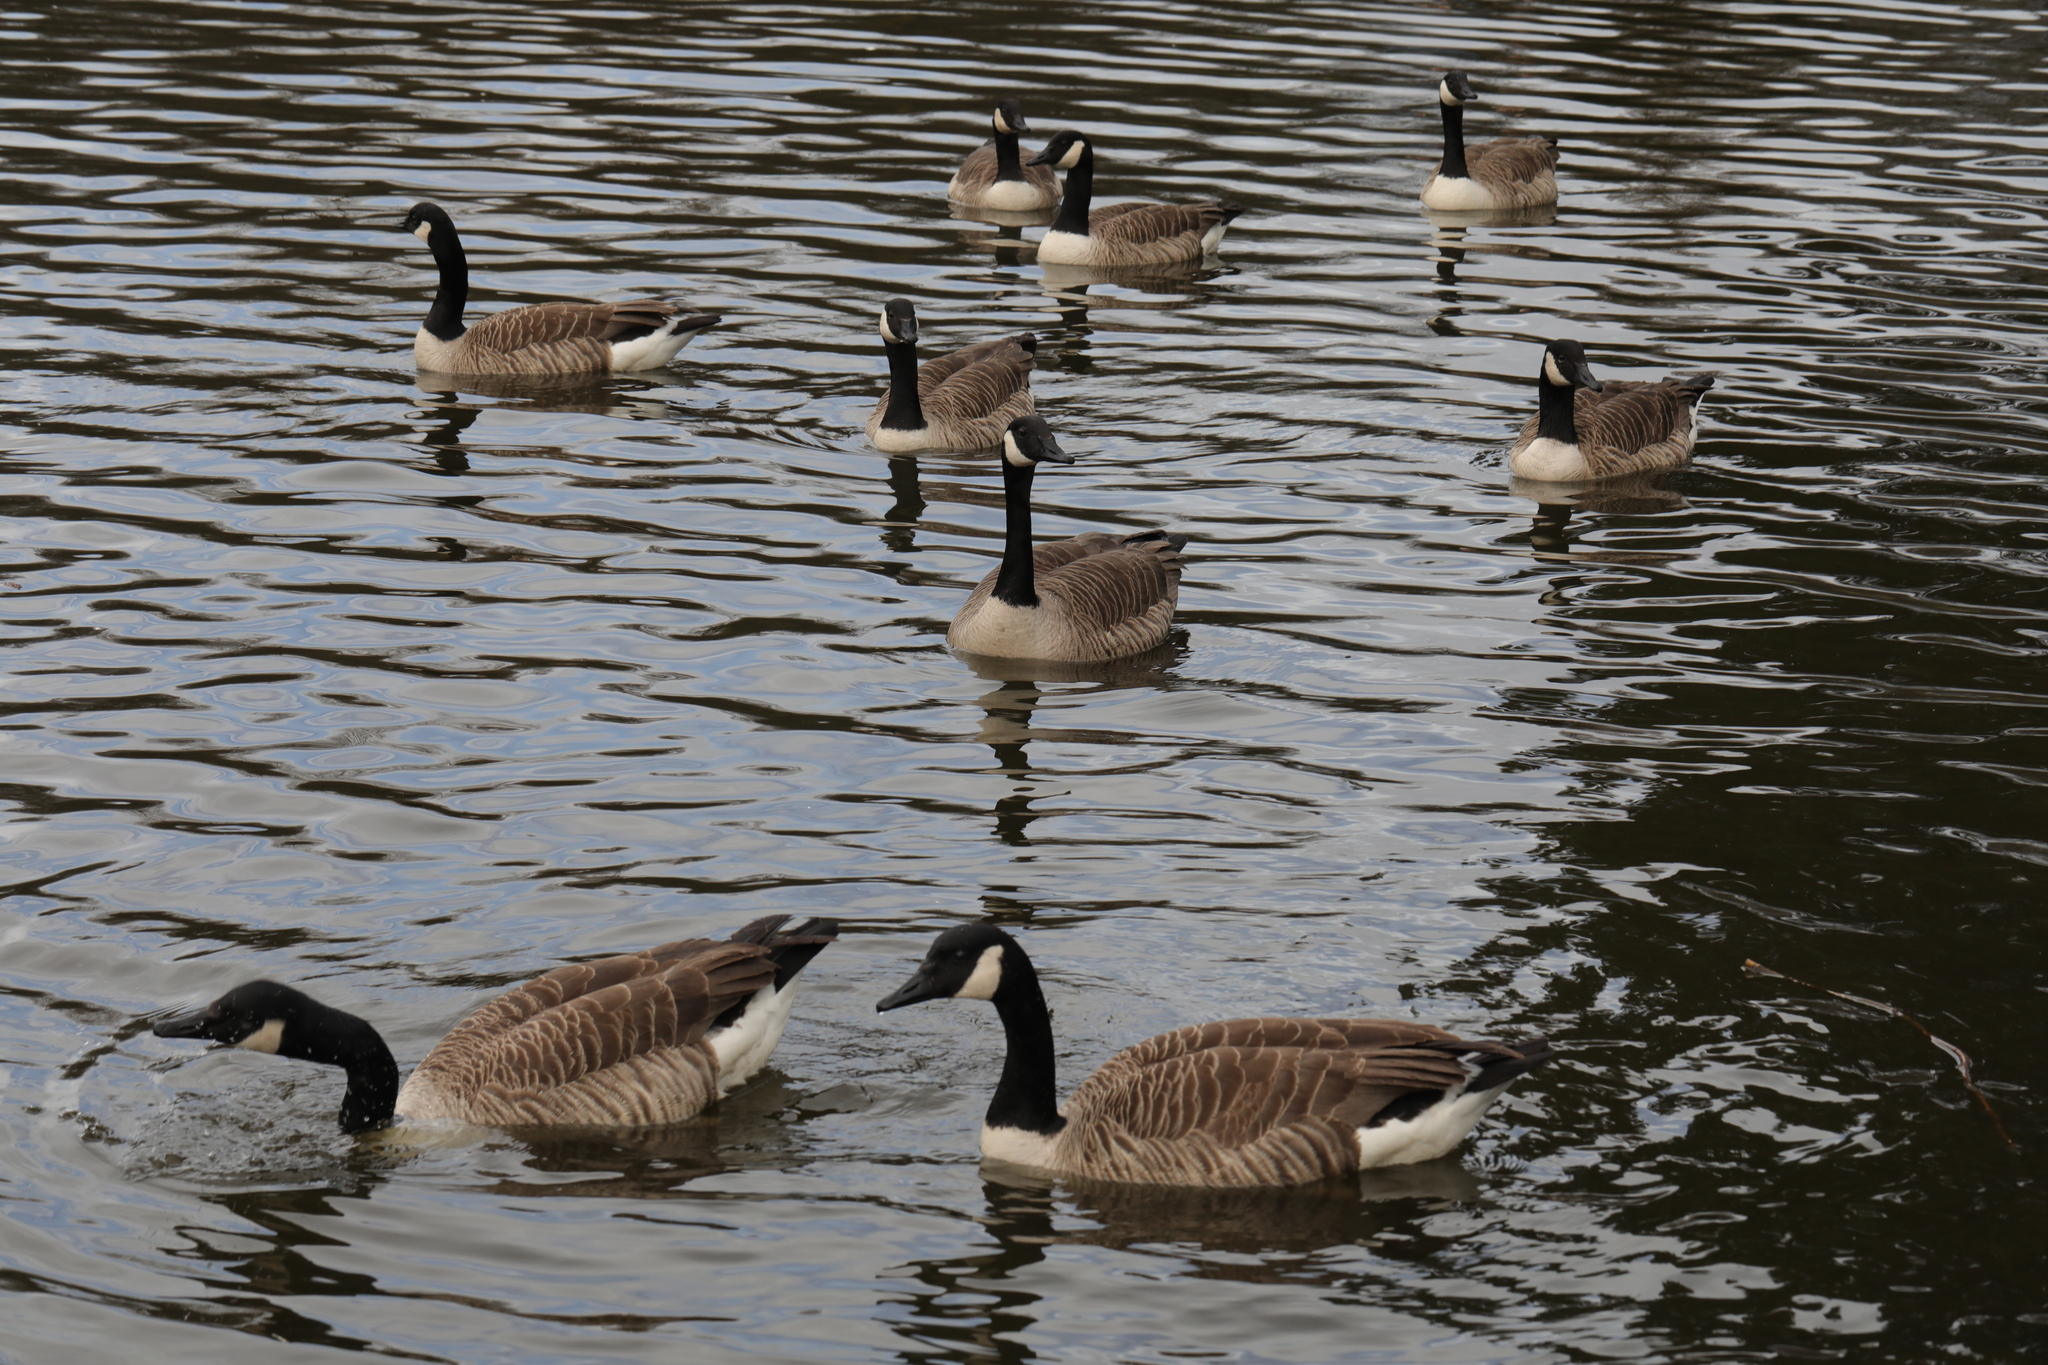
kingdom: Animalia
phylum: Chordata
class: Aves
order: Anseriformes
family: Anatidae
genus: Branta
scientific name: Branta canadensis
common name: Canada goose
